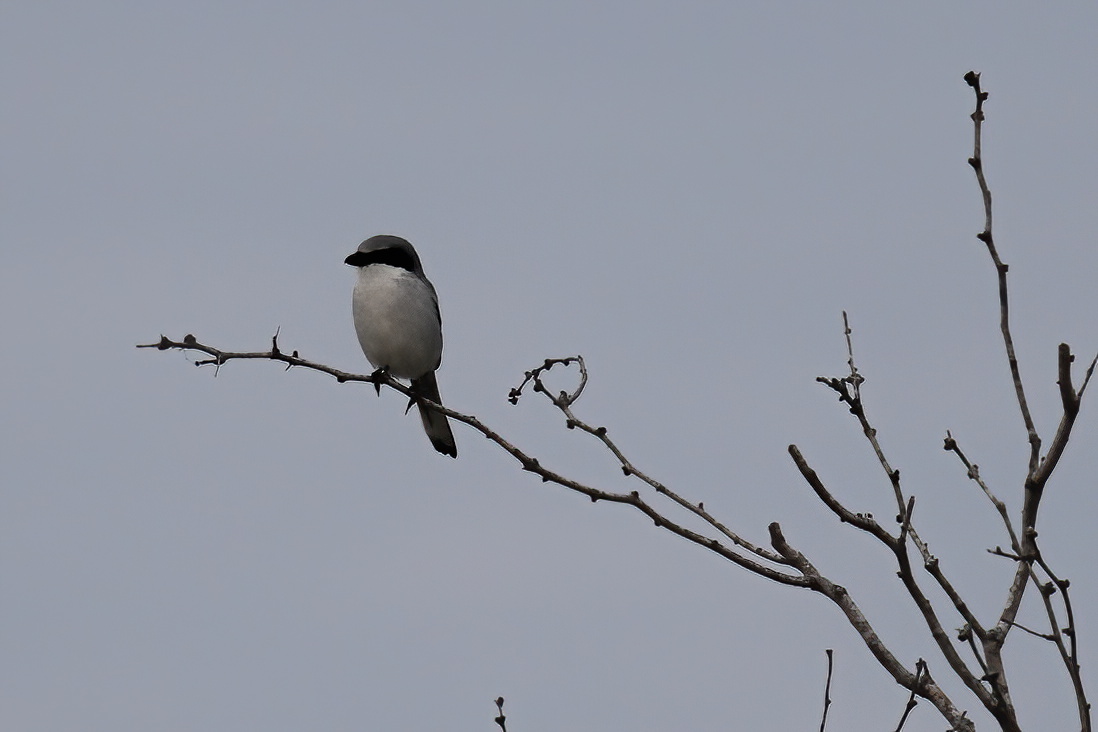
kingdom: Animalia
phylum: Chordata
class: Aves
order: Passeriformes
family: Laniidae
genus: Lanius
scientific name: Lanius ludovicianus
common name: Loggerhead shrike
